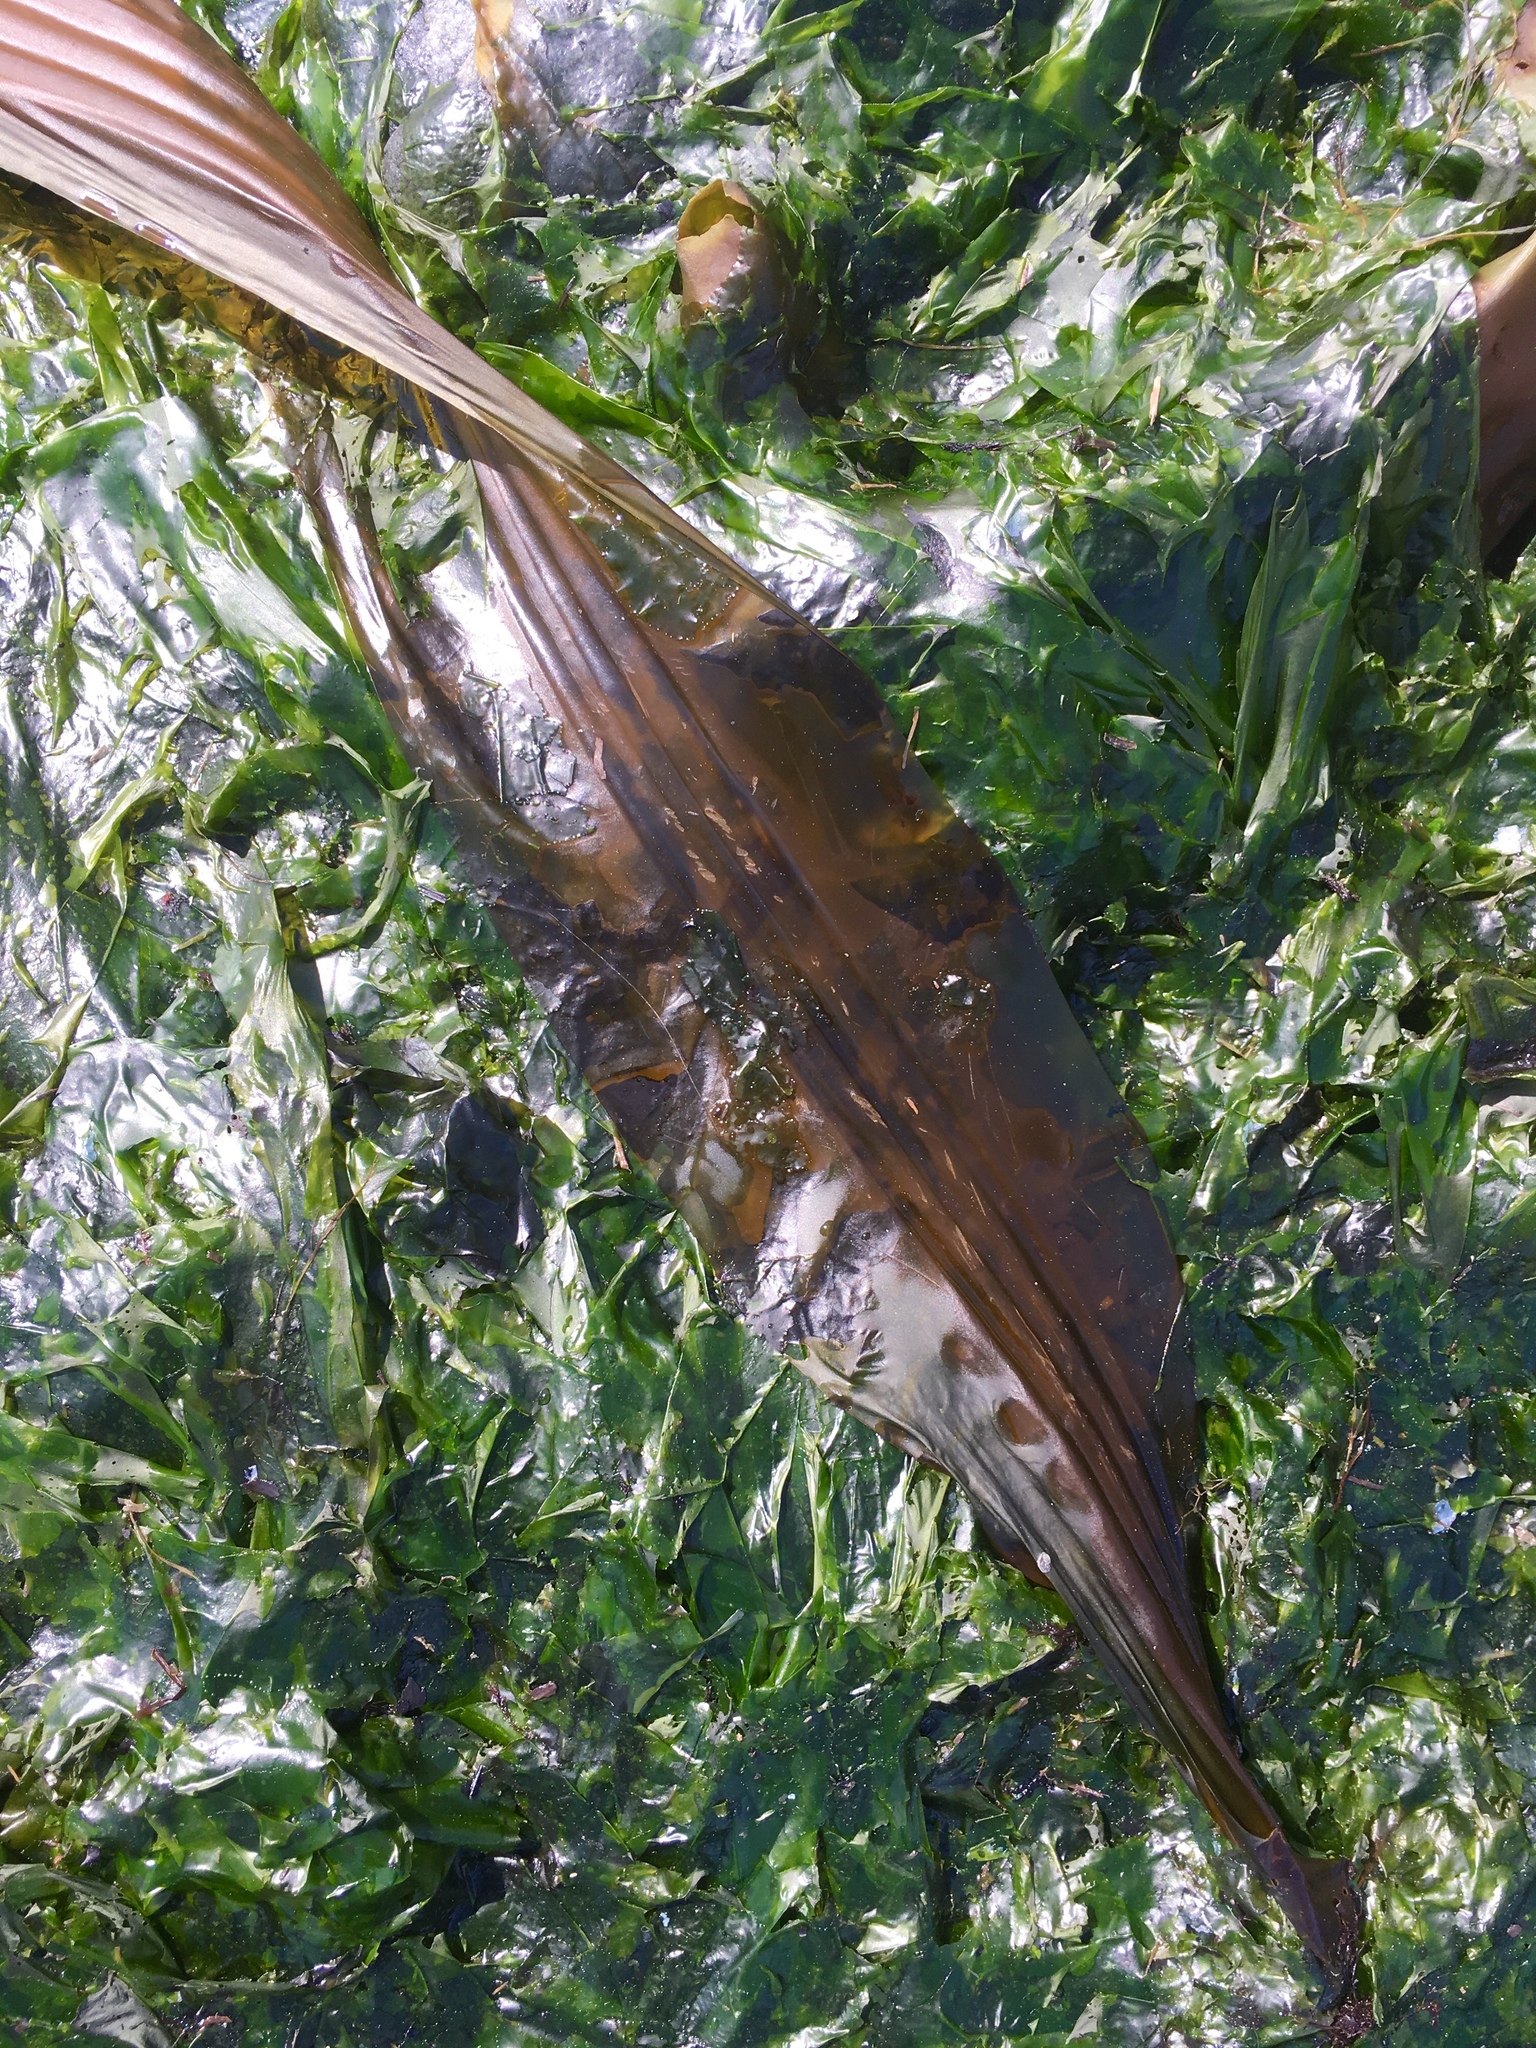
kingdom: Chromista
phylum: Ochrophyta
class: Phaeophyceae
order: Laminariales
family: Laminariaceae
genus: Cymathaere
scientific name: Cymathaere triplicata
